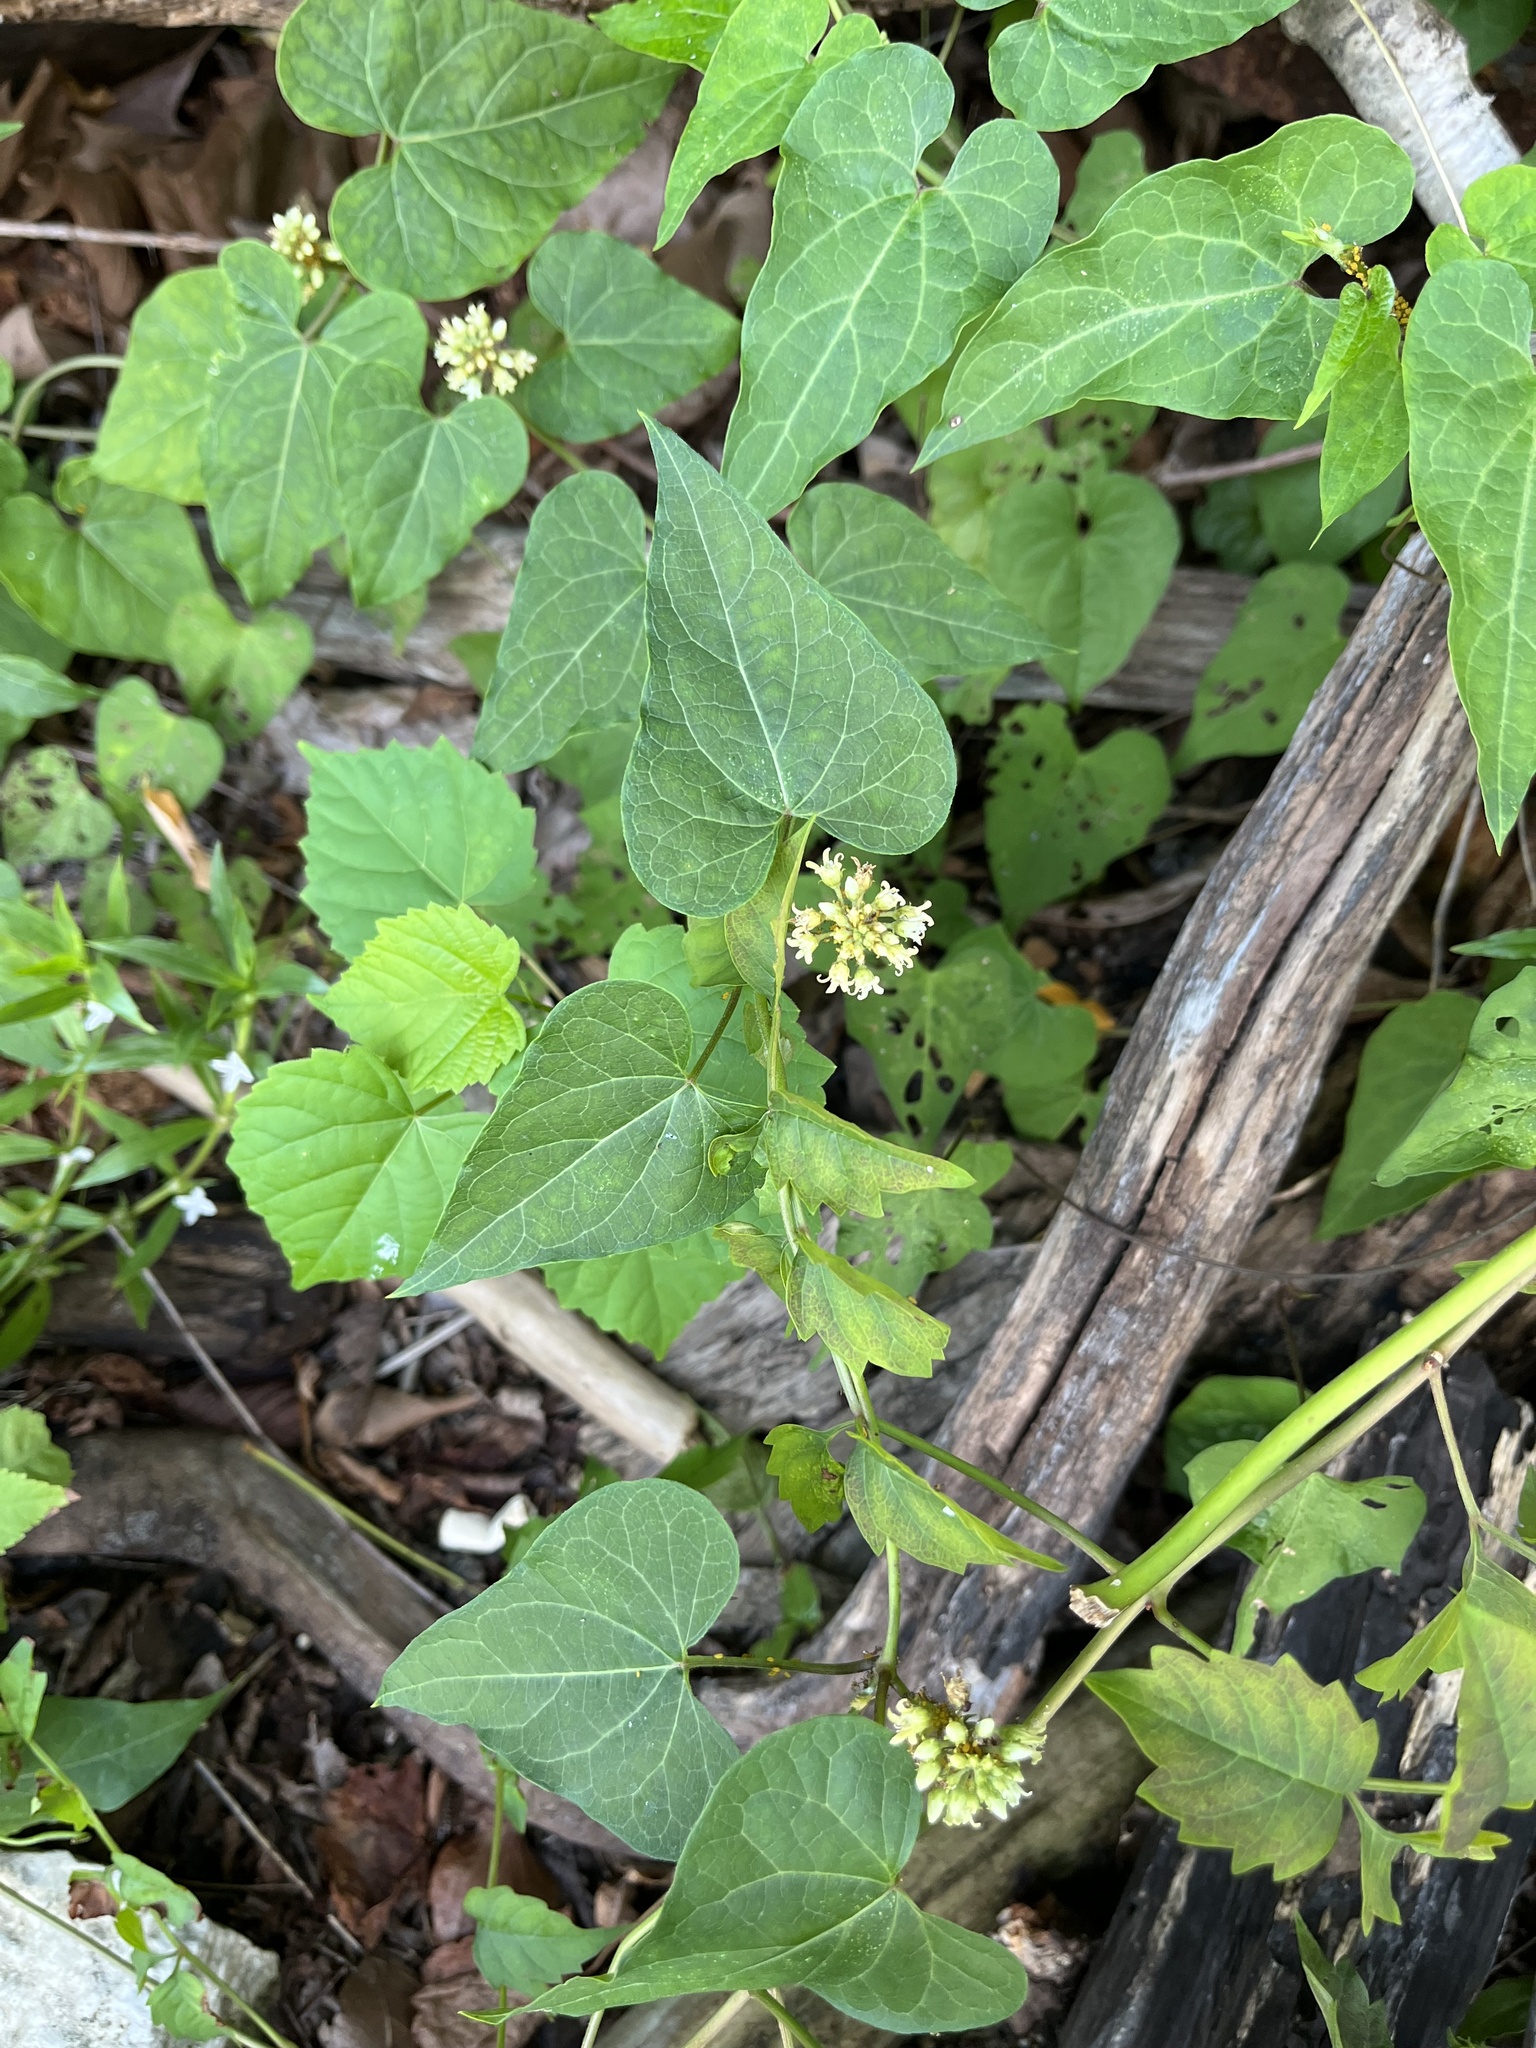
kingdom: Plantae
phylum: Tracheophyta
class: Magnoliopsida
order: Gentianales
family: Apocynaceae
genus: Cynanchum
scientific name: Cynanchum laeve
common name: Sandvine
